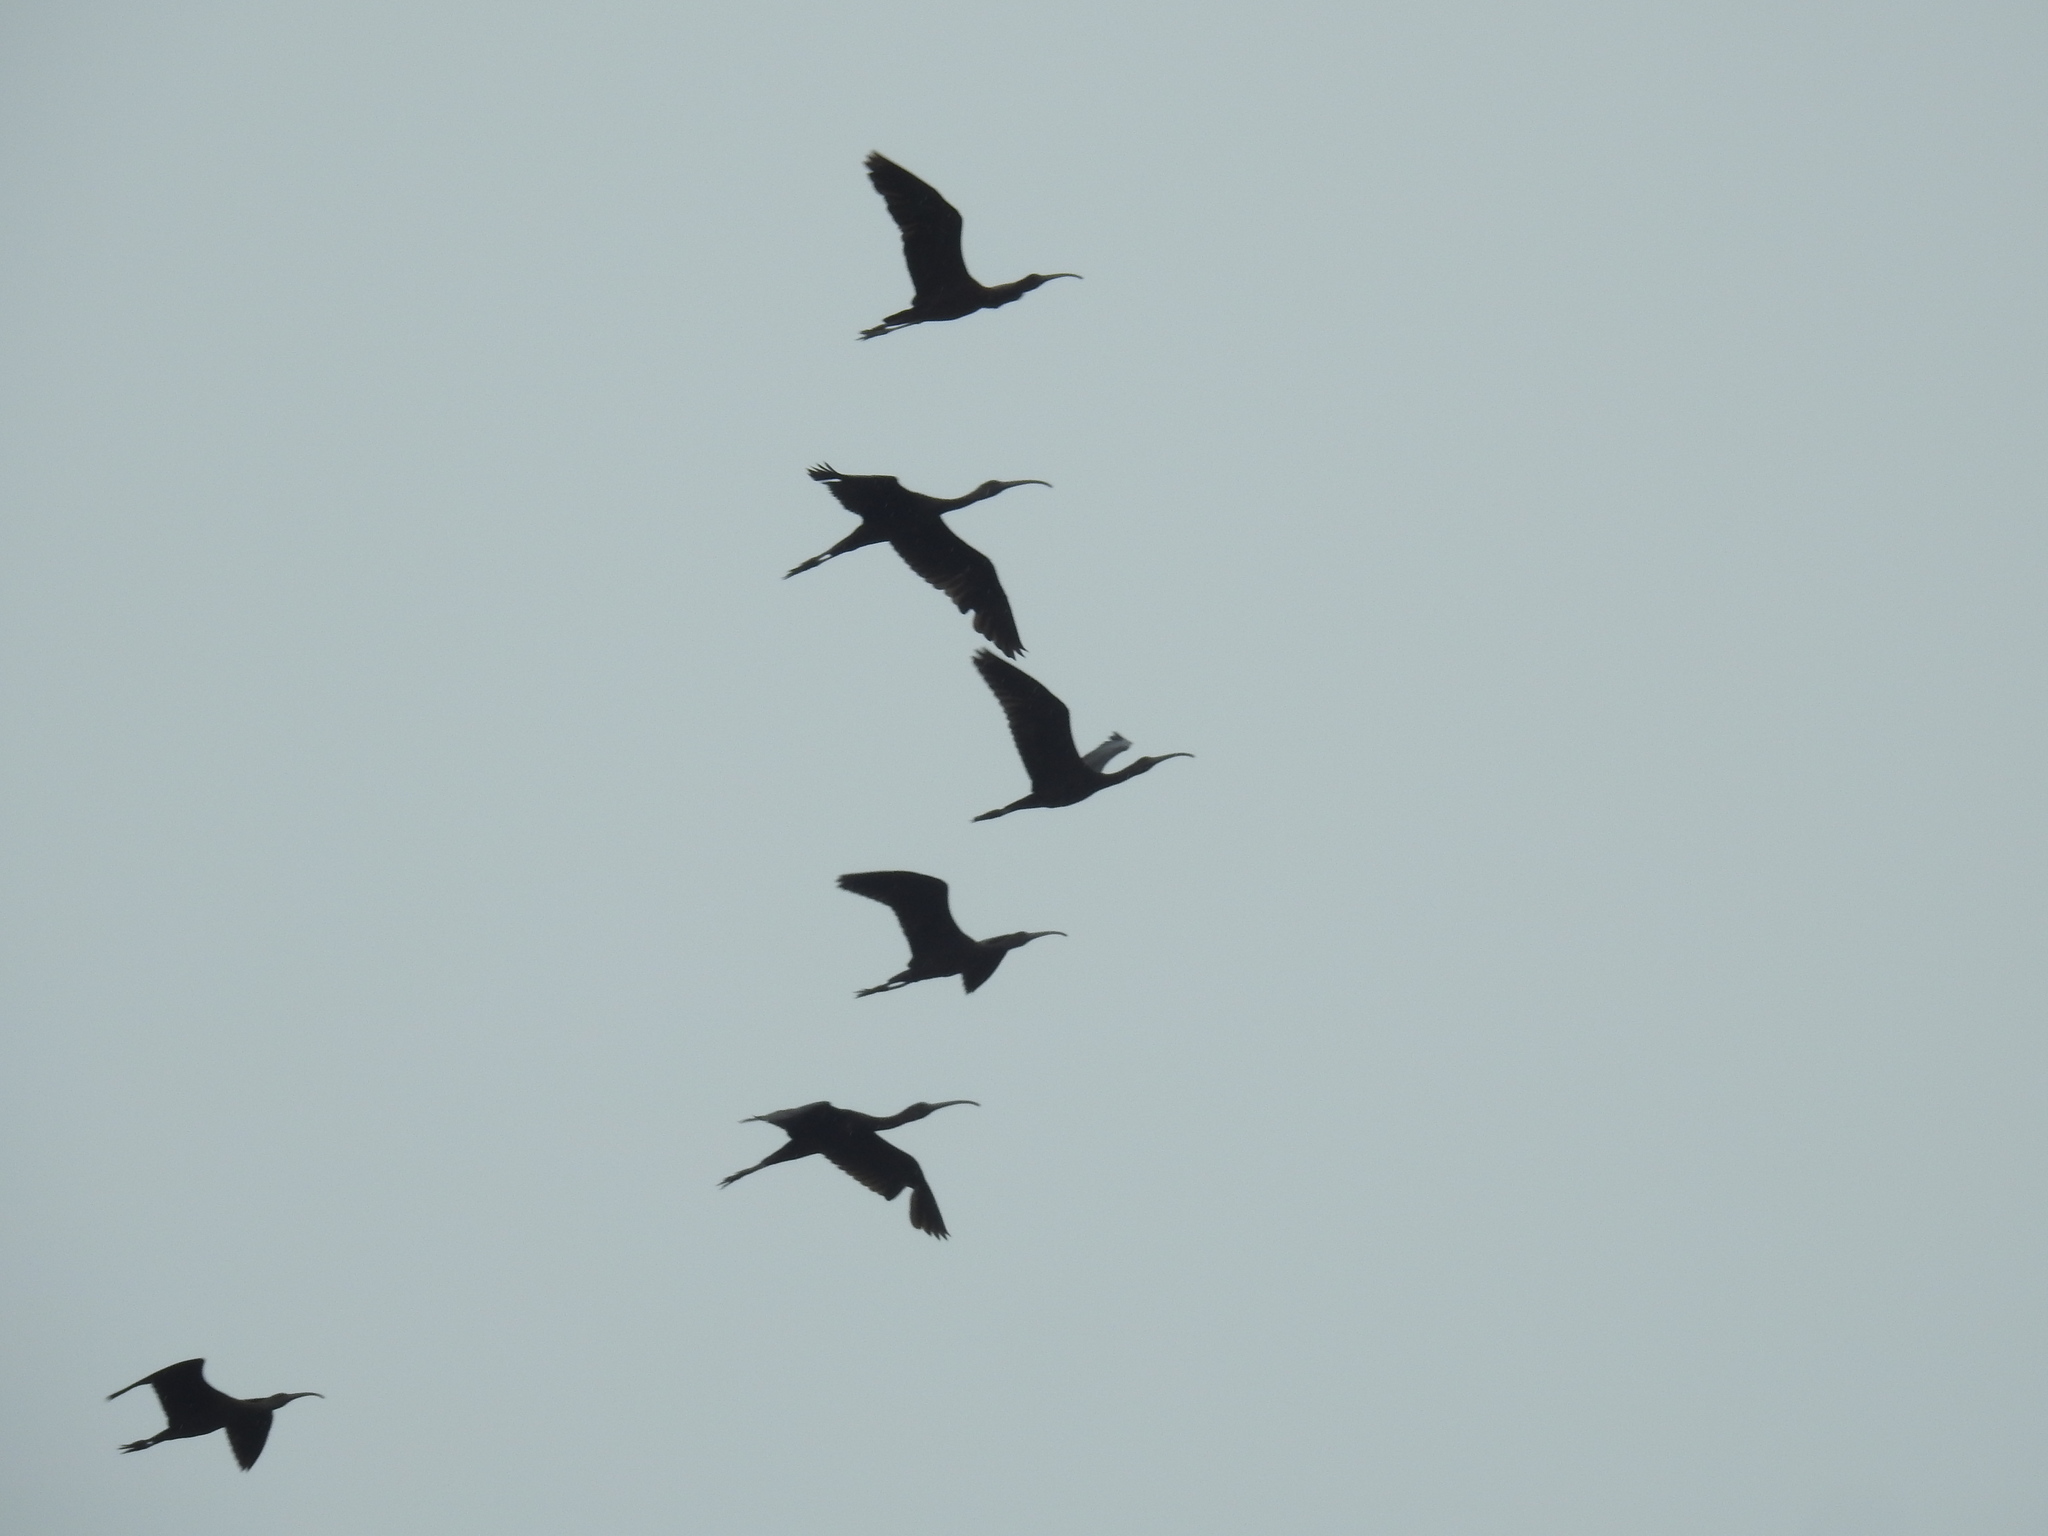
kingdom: Animalia
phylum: Chordata
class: Aves
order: Pelecaniformes
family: Threskiornithidae
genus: Plegadis
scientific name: Plegadis falcinellus
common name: Glossy ibis
